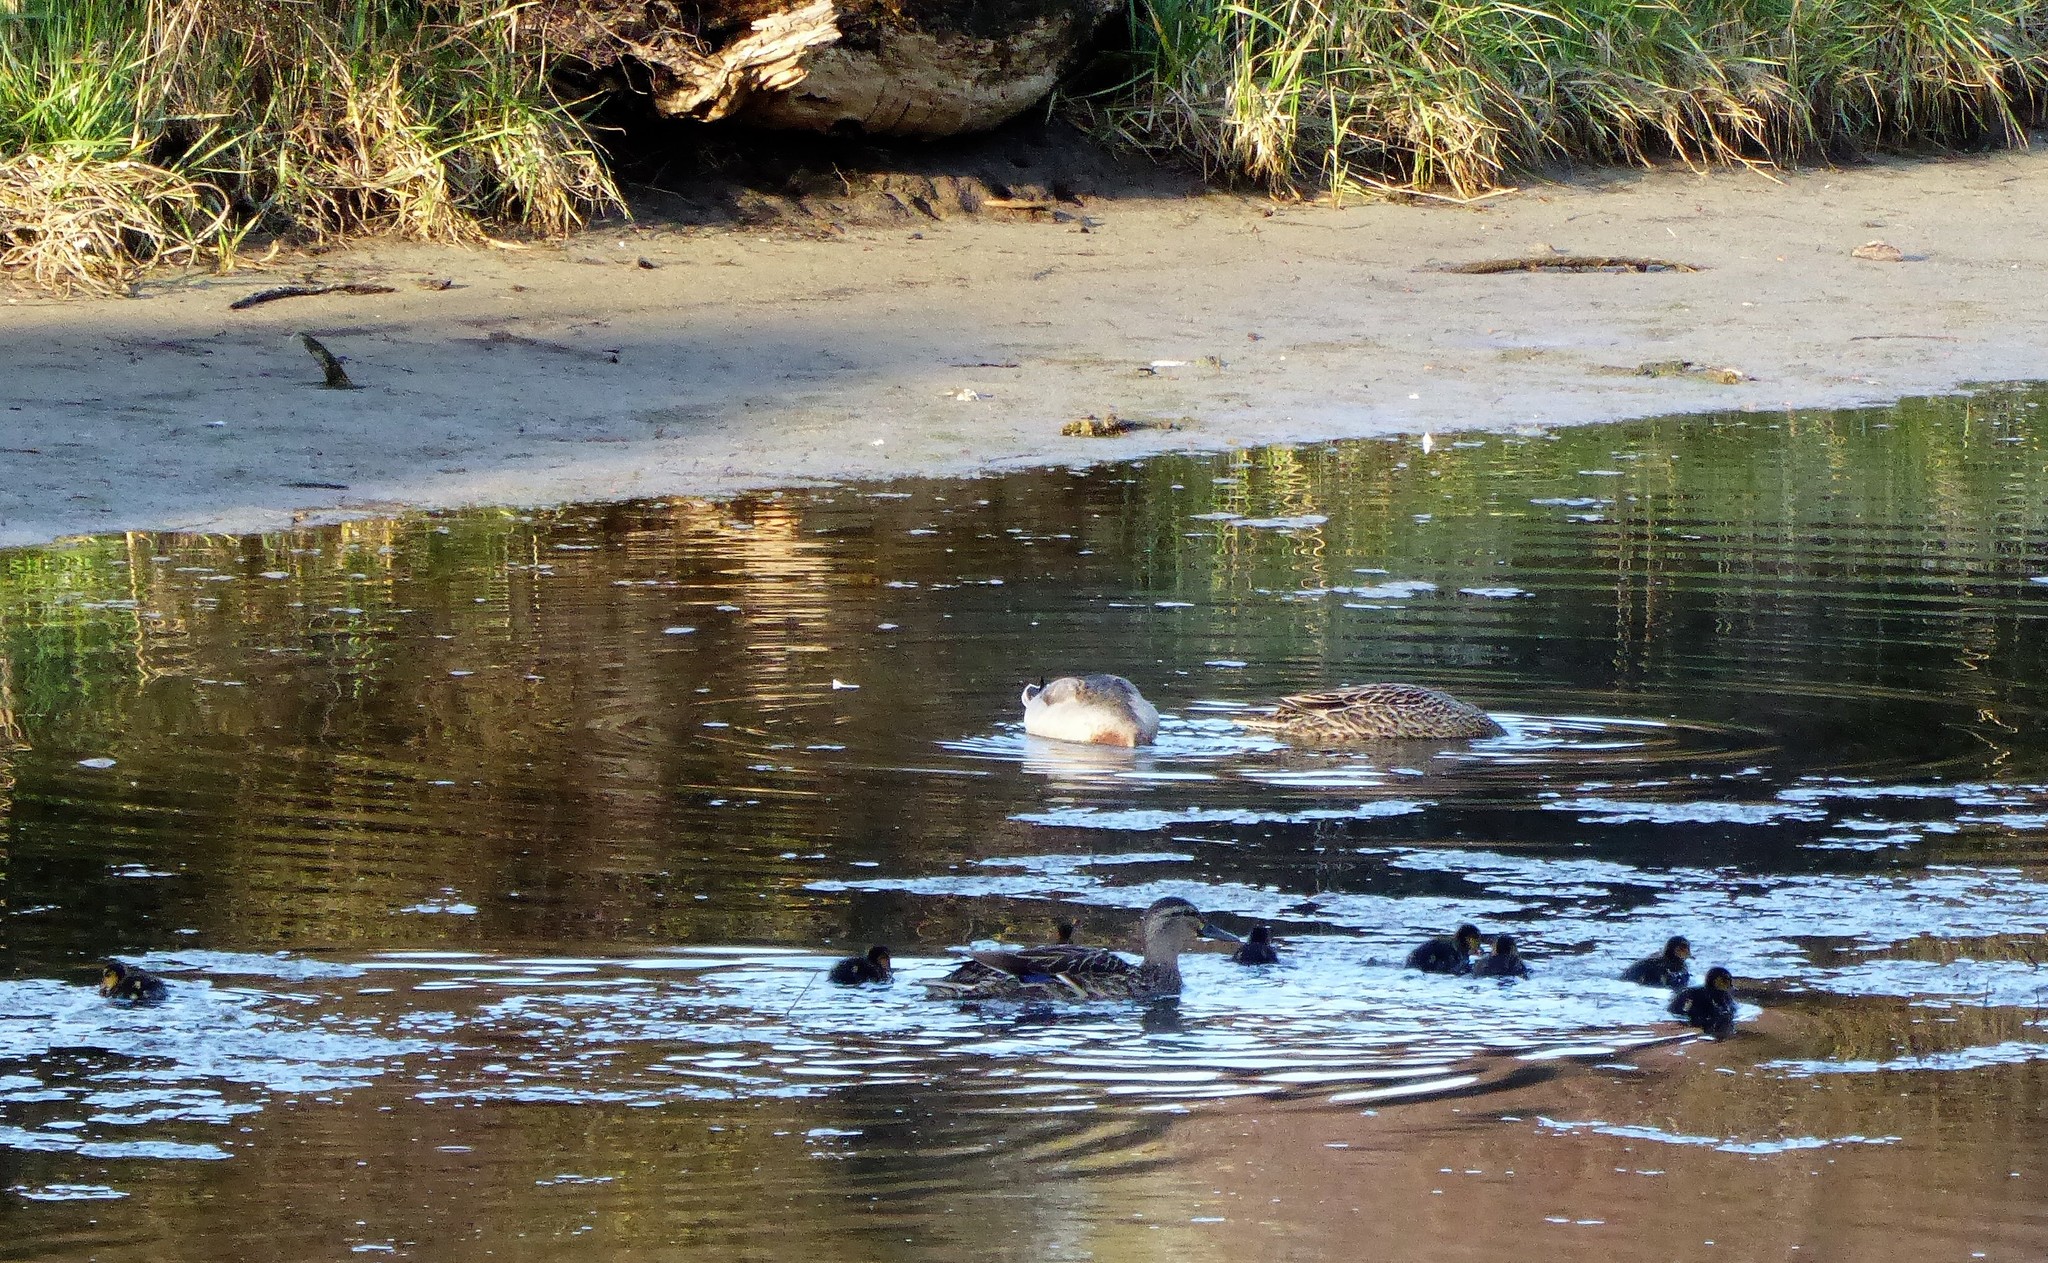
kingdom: Animalia
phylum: Chordata
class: Aves
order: Anseriformes
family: Anatidae
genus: Anas
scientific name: Anas platyrhynchos
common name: Mallard
